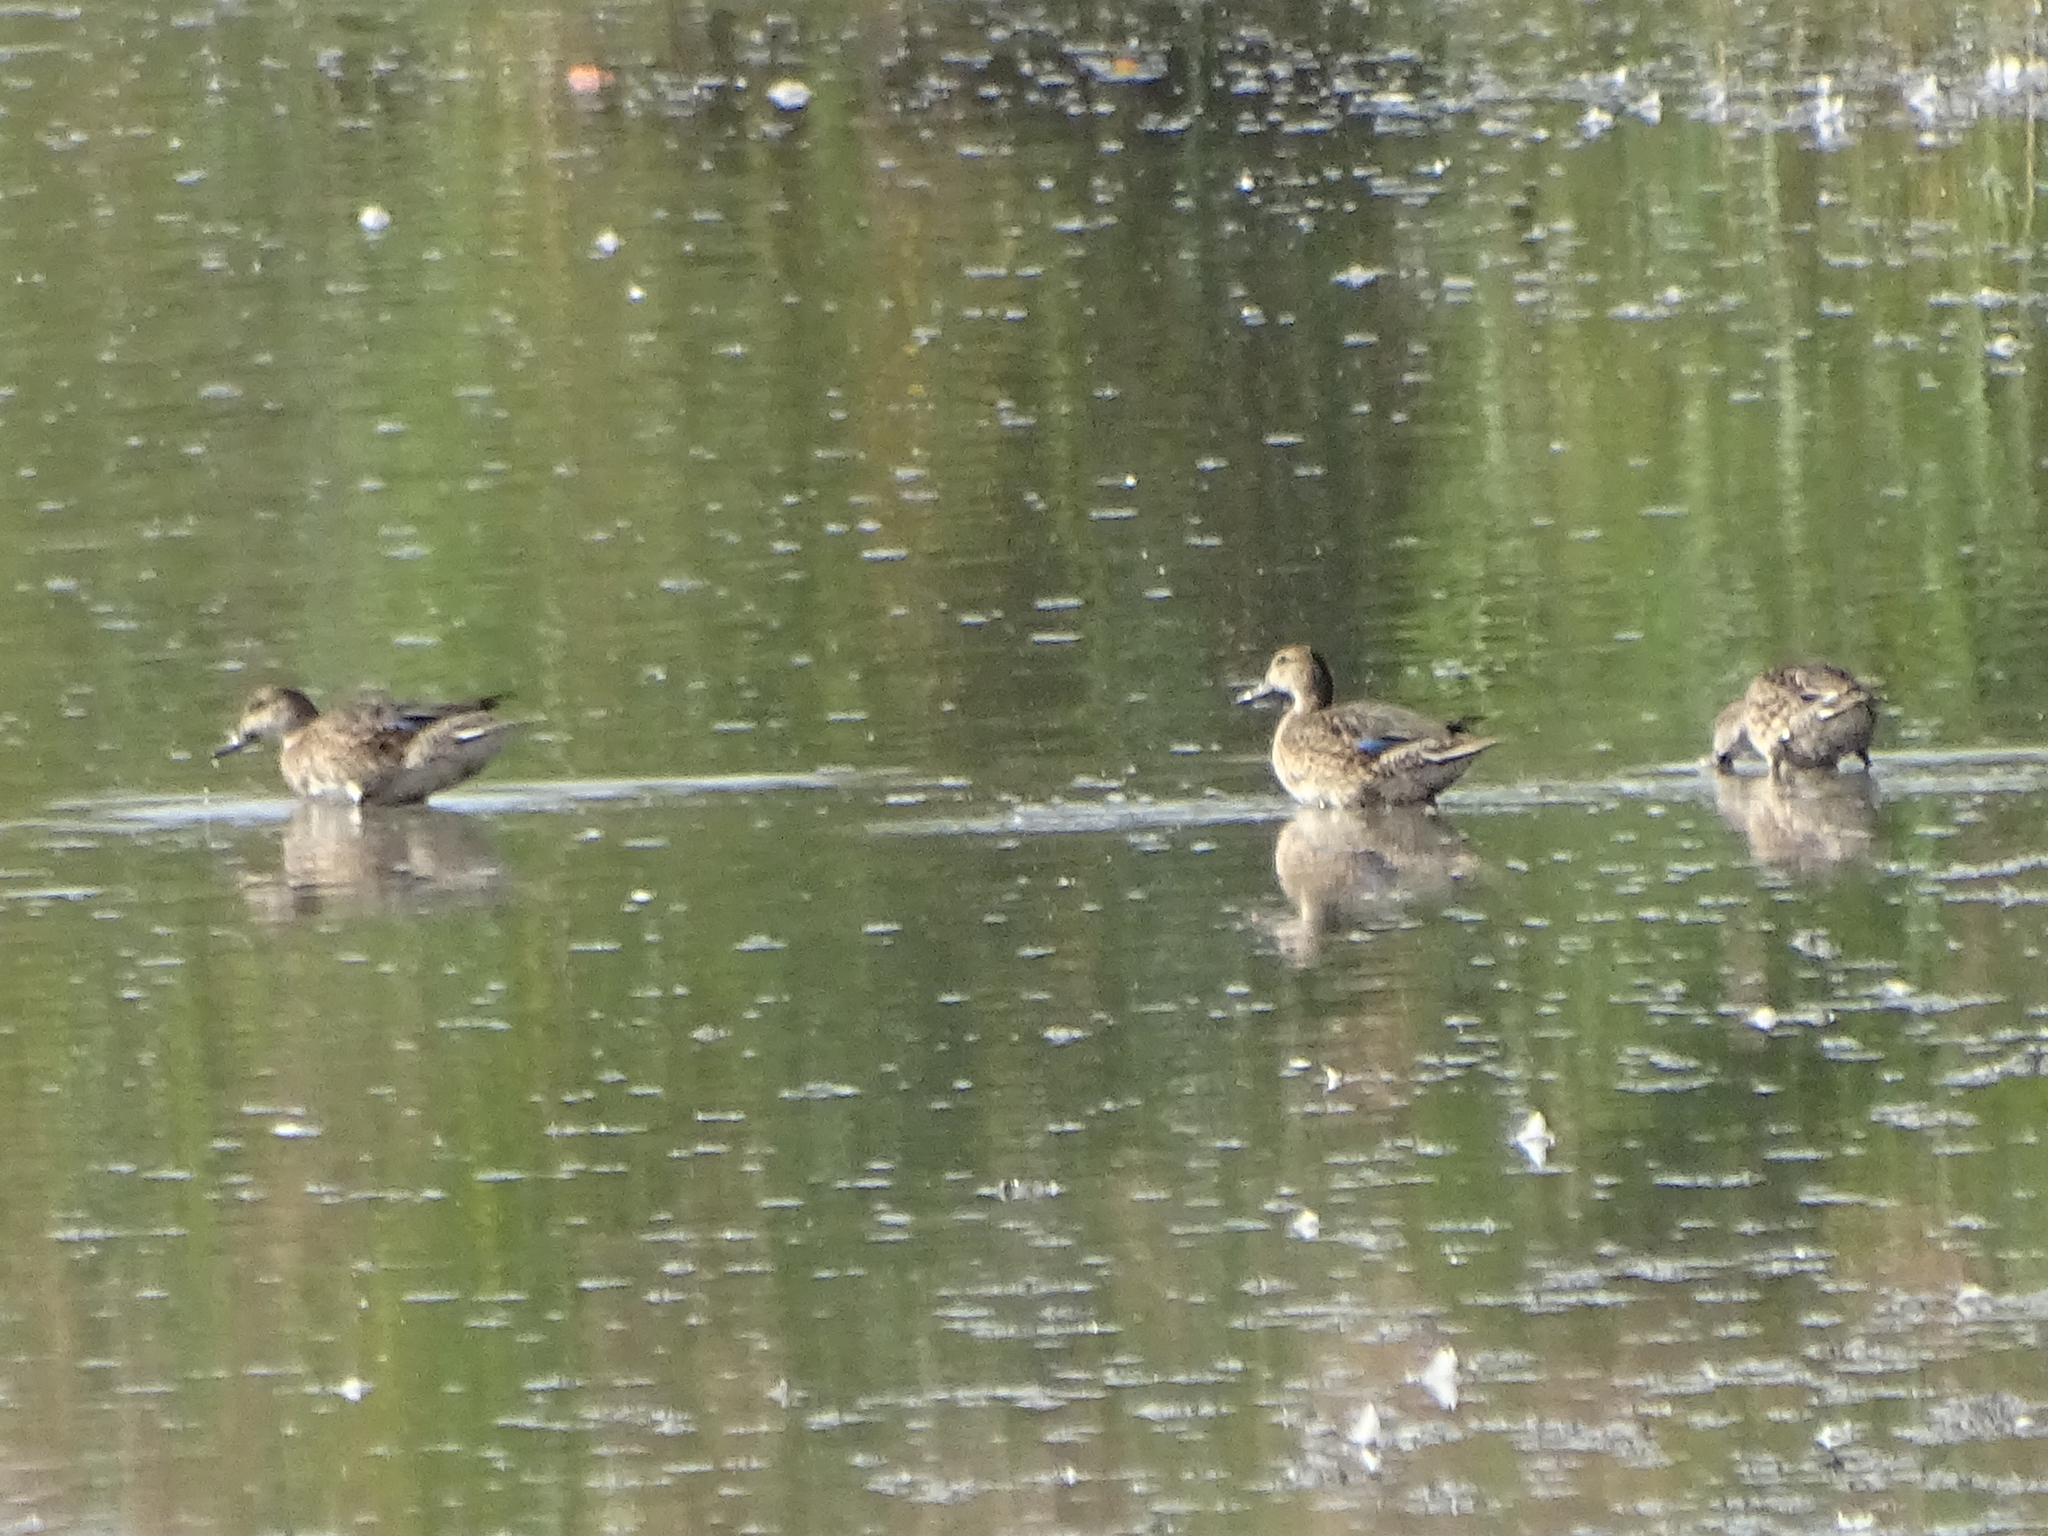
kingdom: Animalia
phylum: Chordata
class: Aves
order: Anseriformes
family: Anatidae
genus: Anas
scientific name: Anas crecca
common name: Eurasian teal
